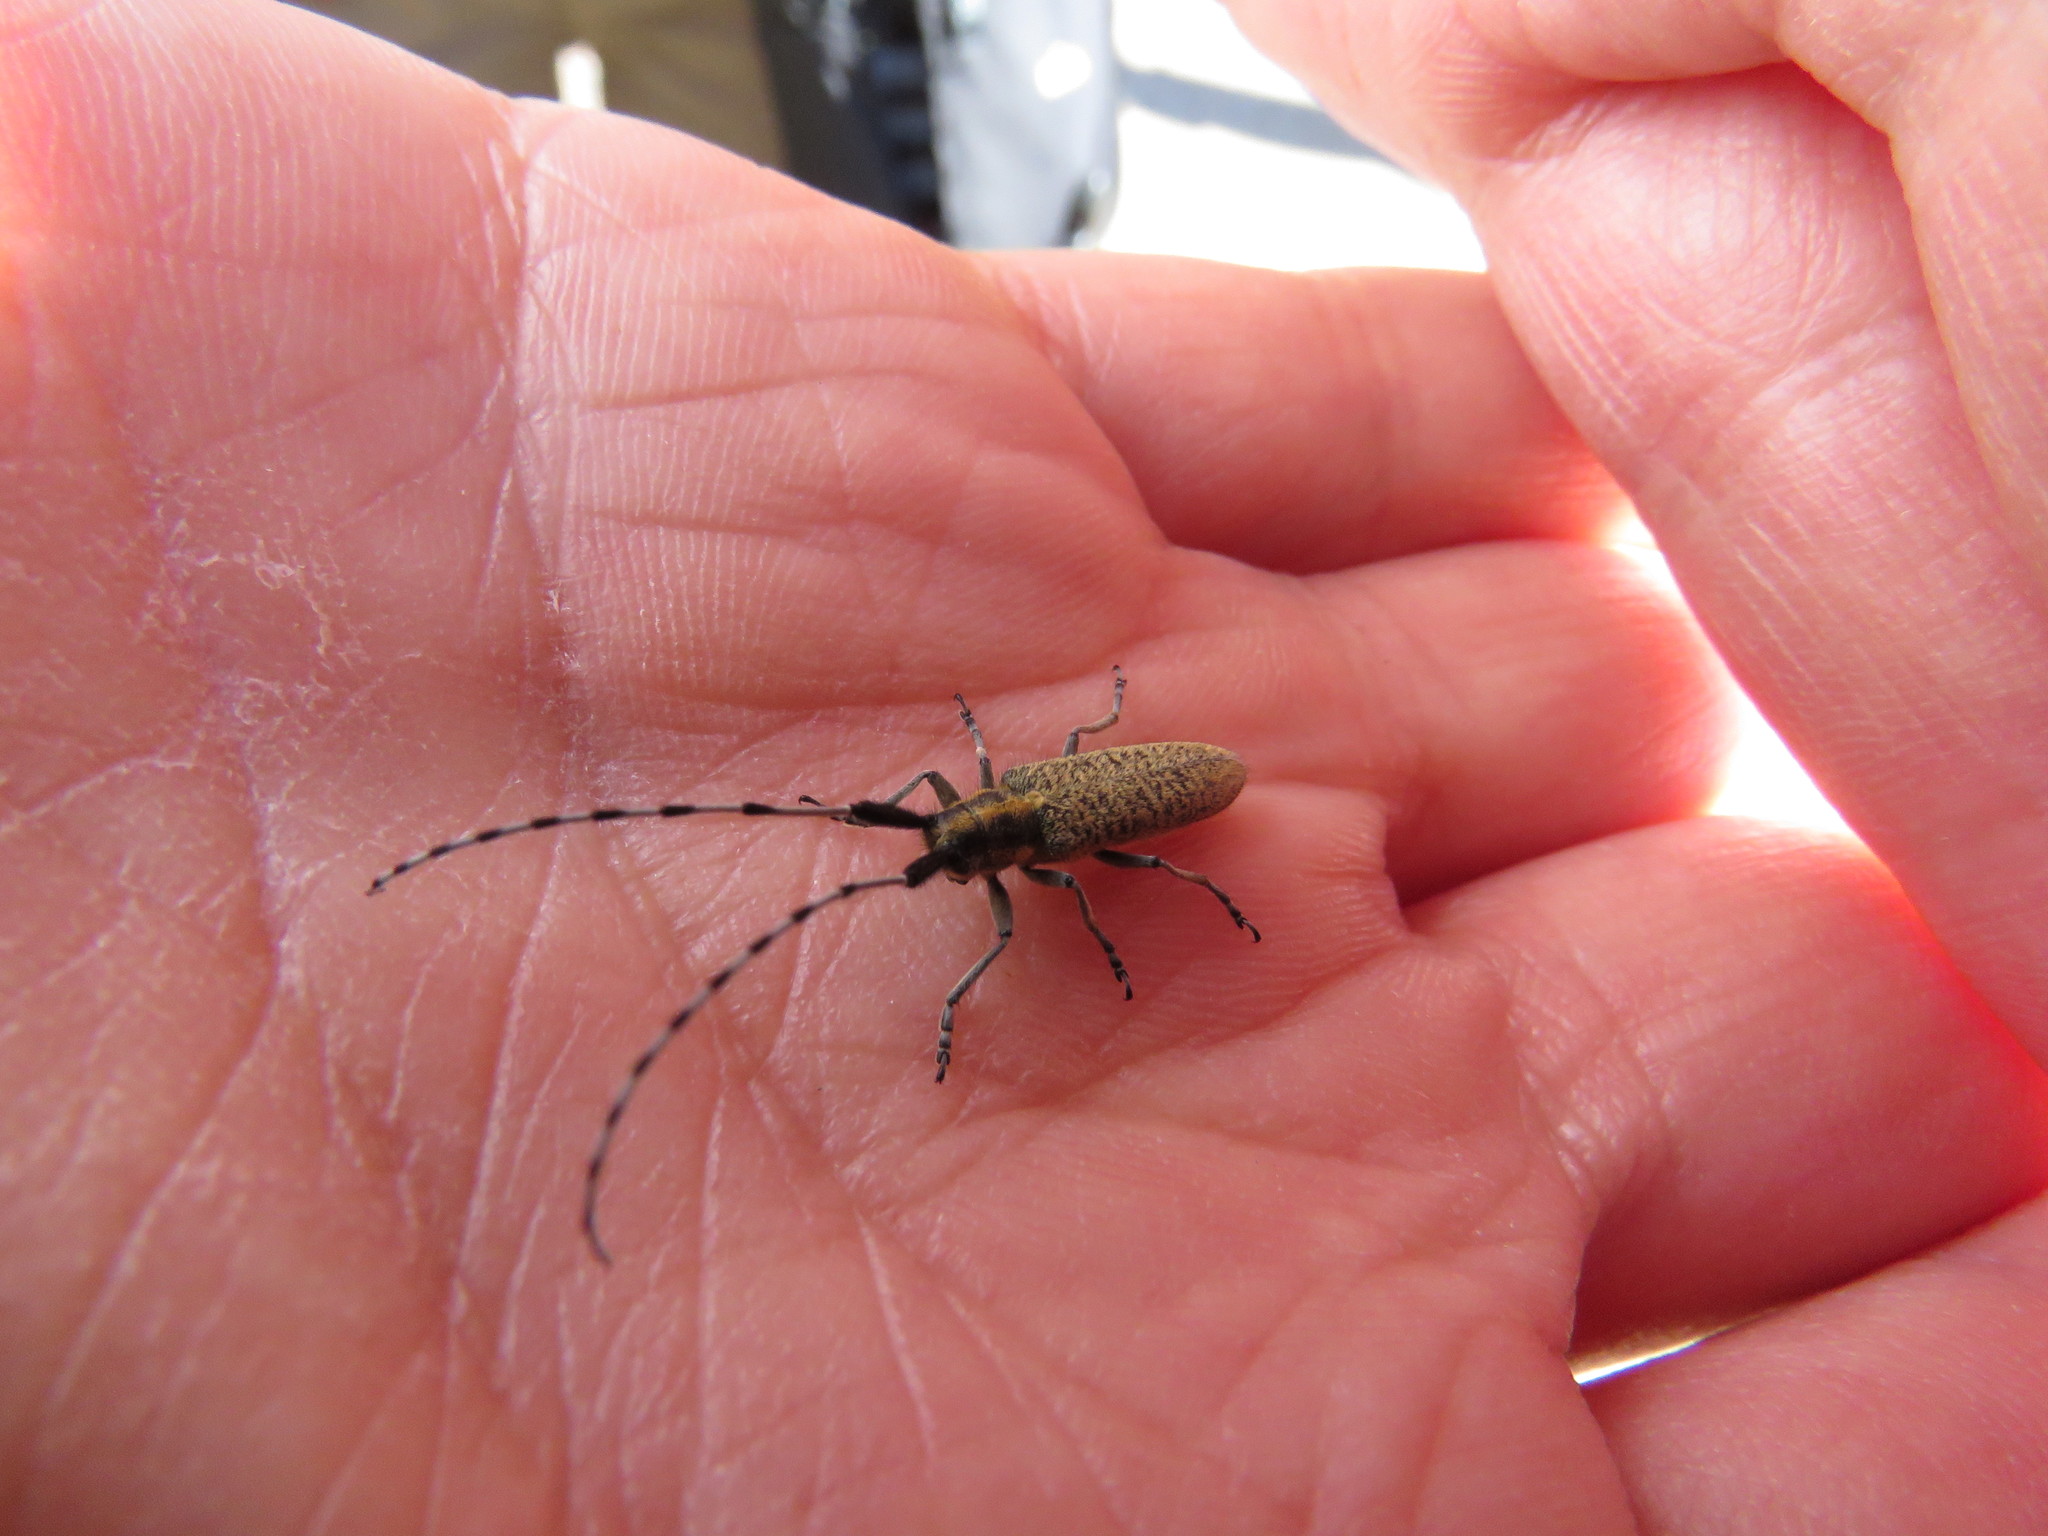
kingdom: Animalia
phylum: Arthropoda
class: Insecta
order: Coleoptera
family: Cerambycidae
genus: Agapanthia
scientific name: Agapanthia villosoviridescens
